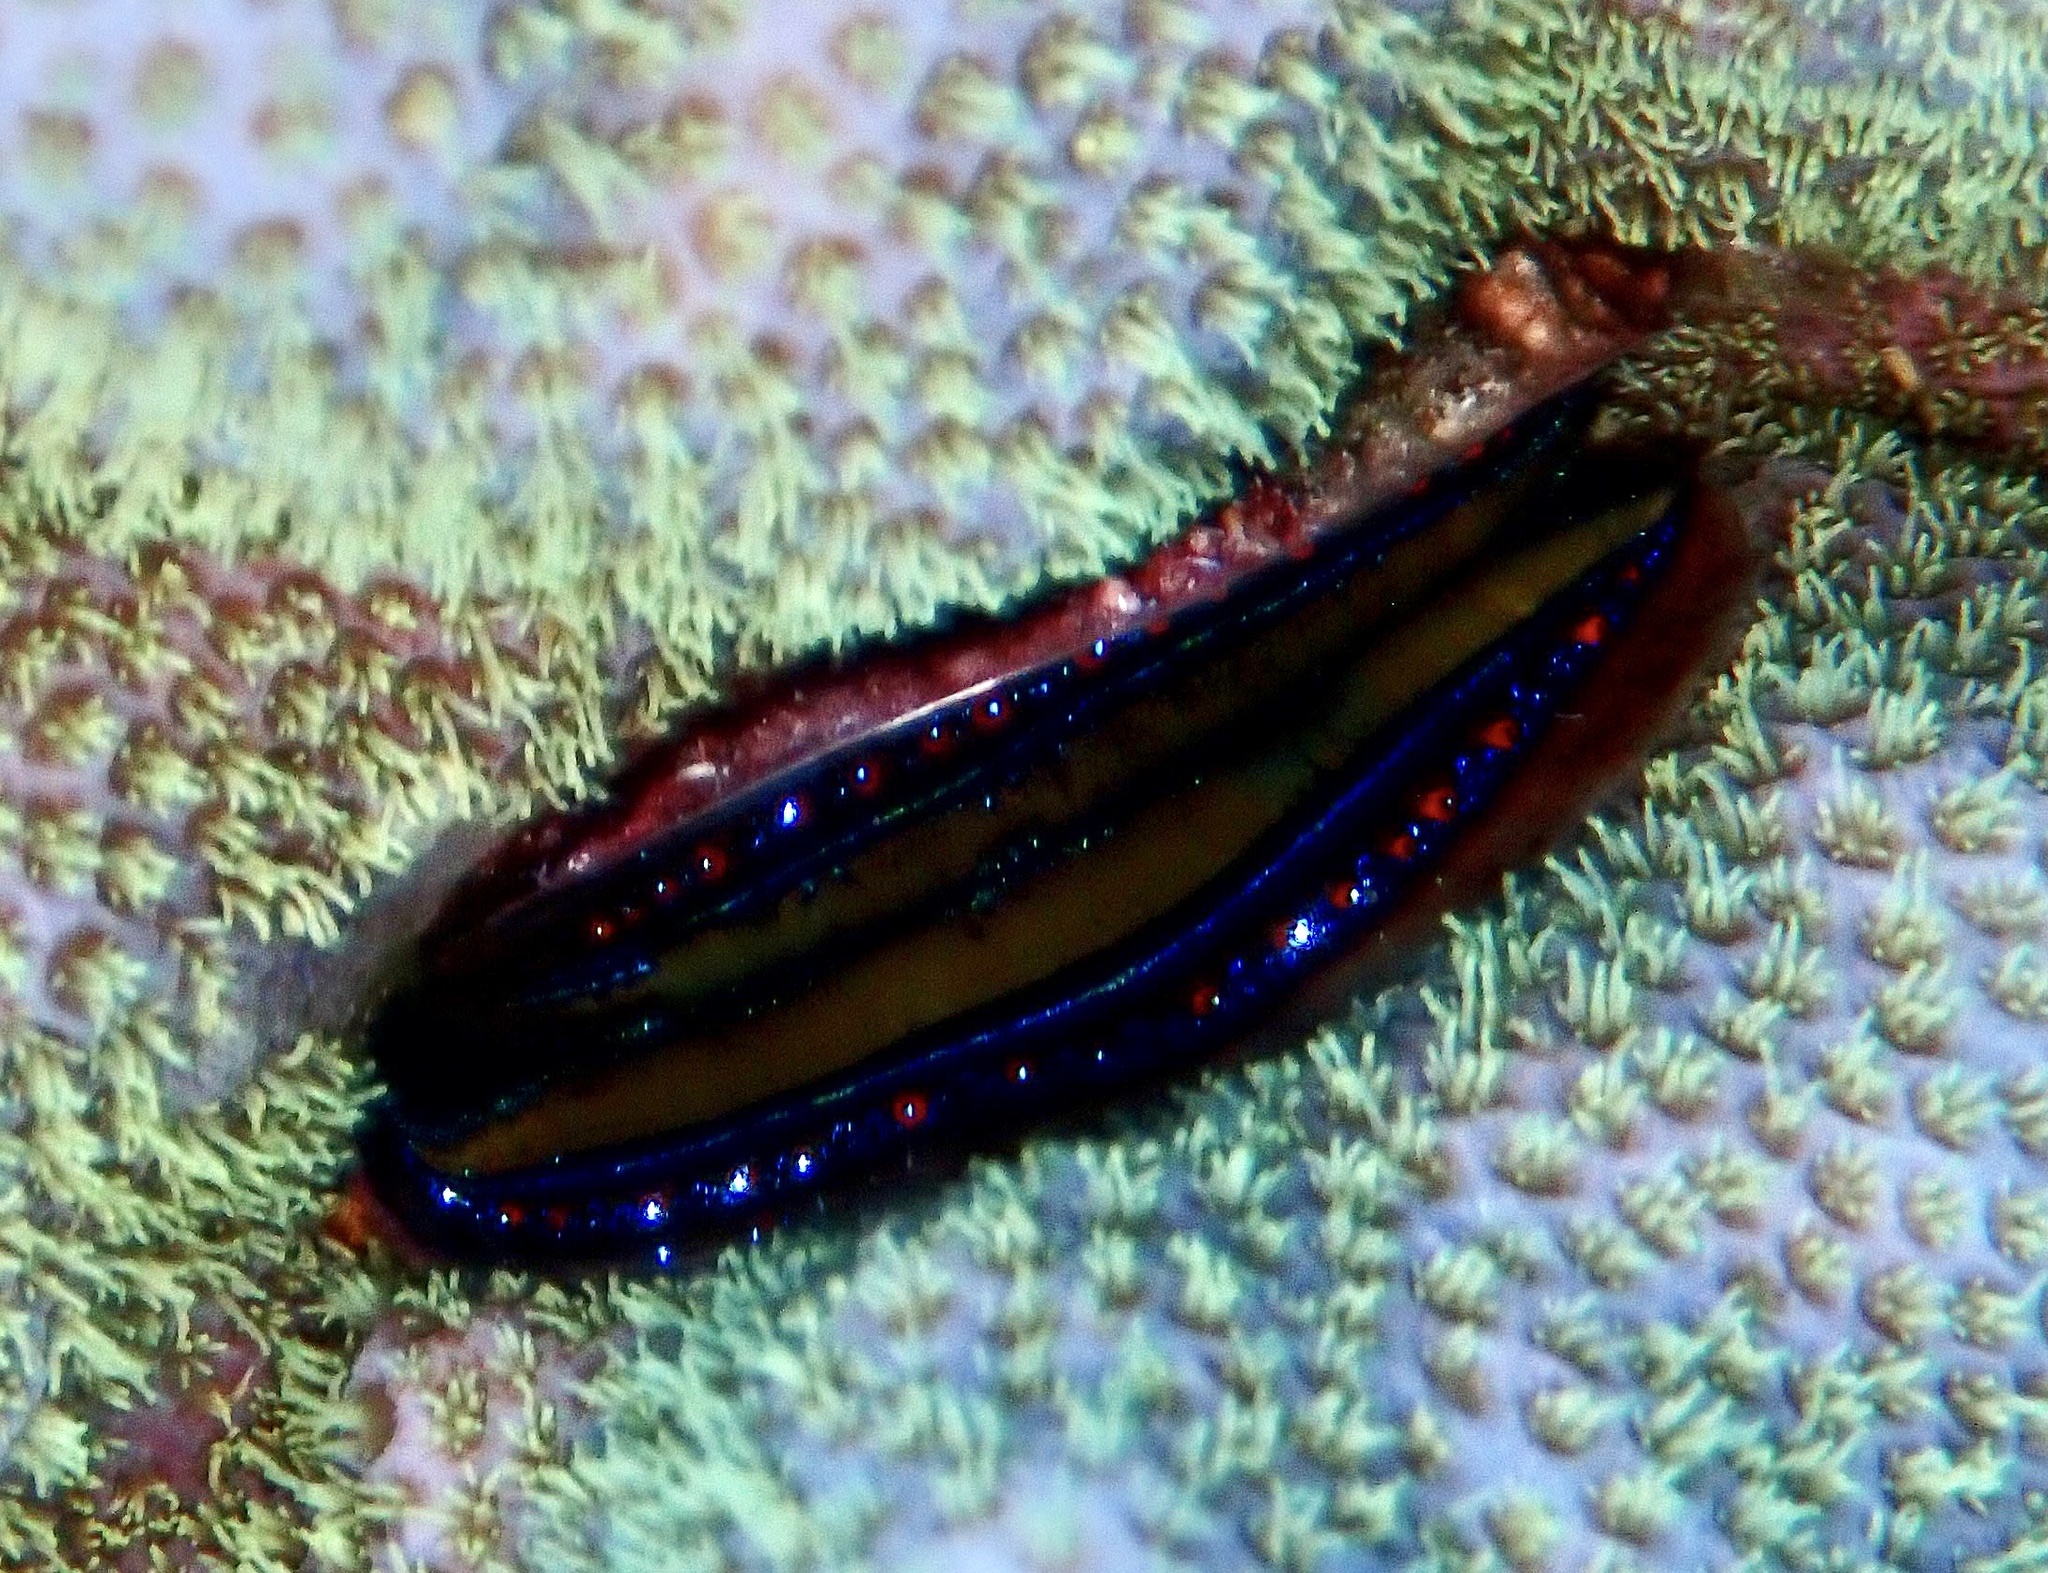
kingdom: Animalia
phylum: Mollusca
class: Bivalvia
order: Pectinida
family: Pectinidae
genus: Pedum
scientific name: Pedum spondyloideum
